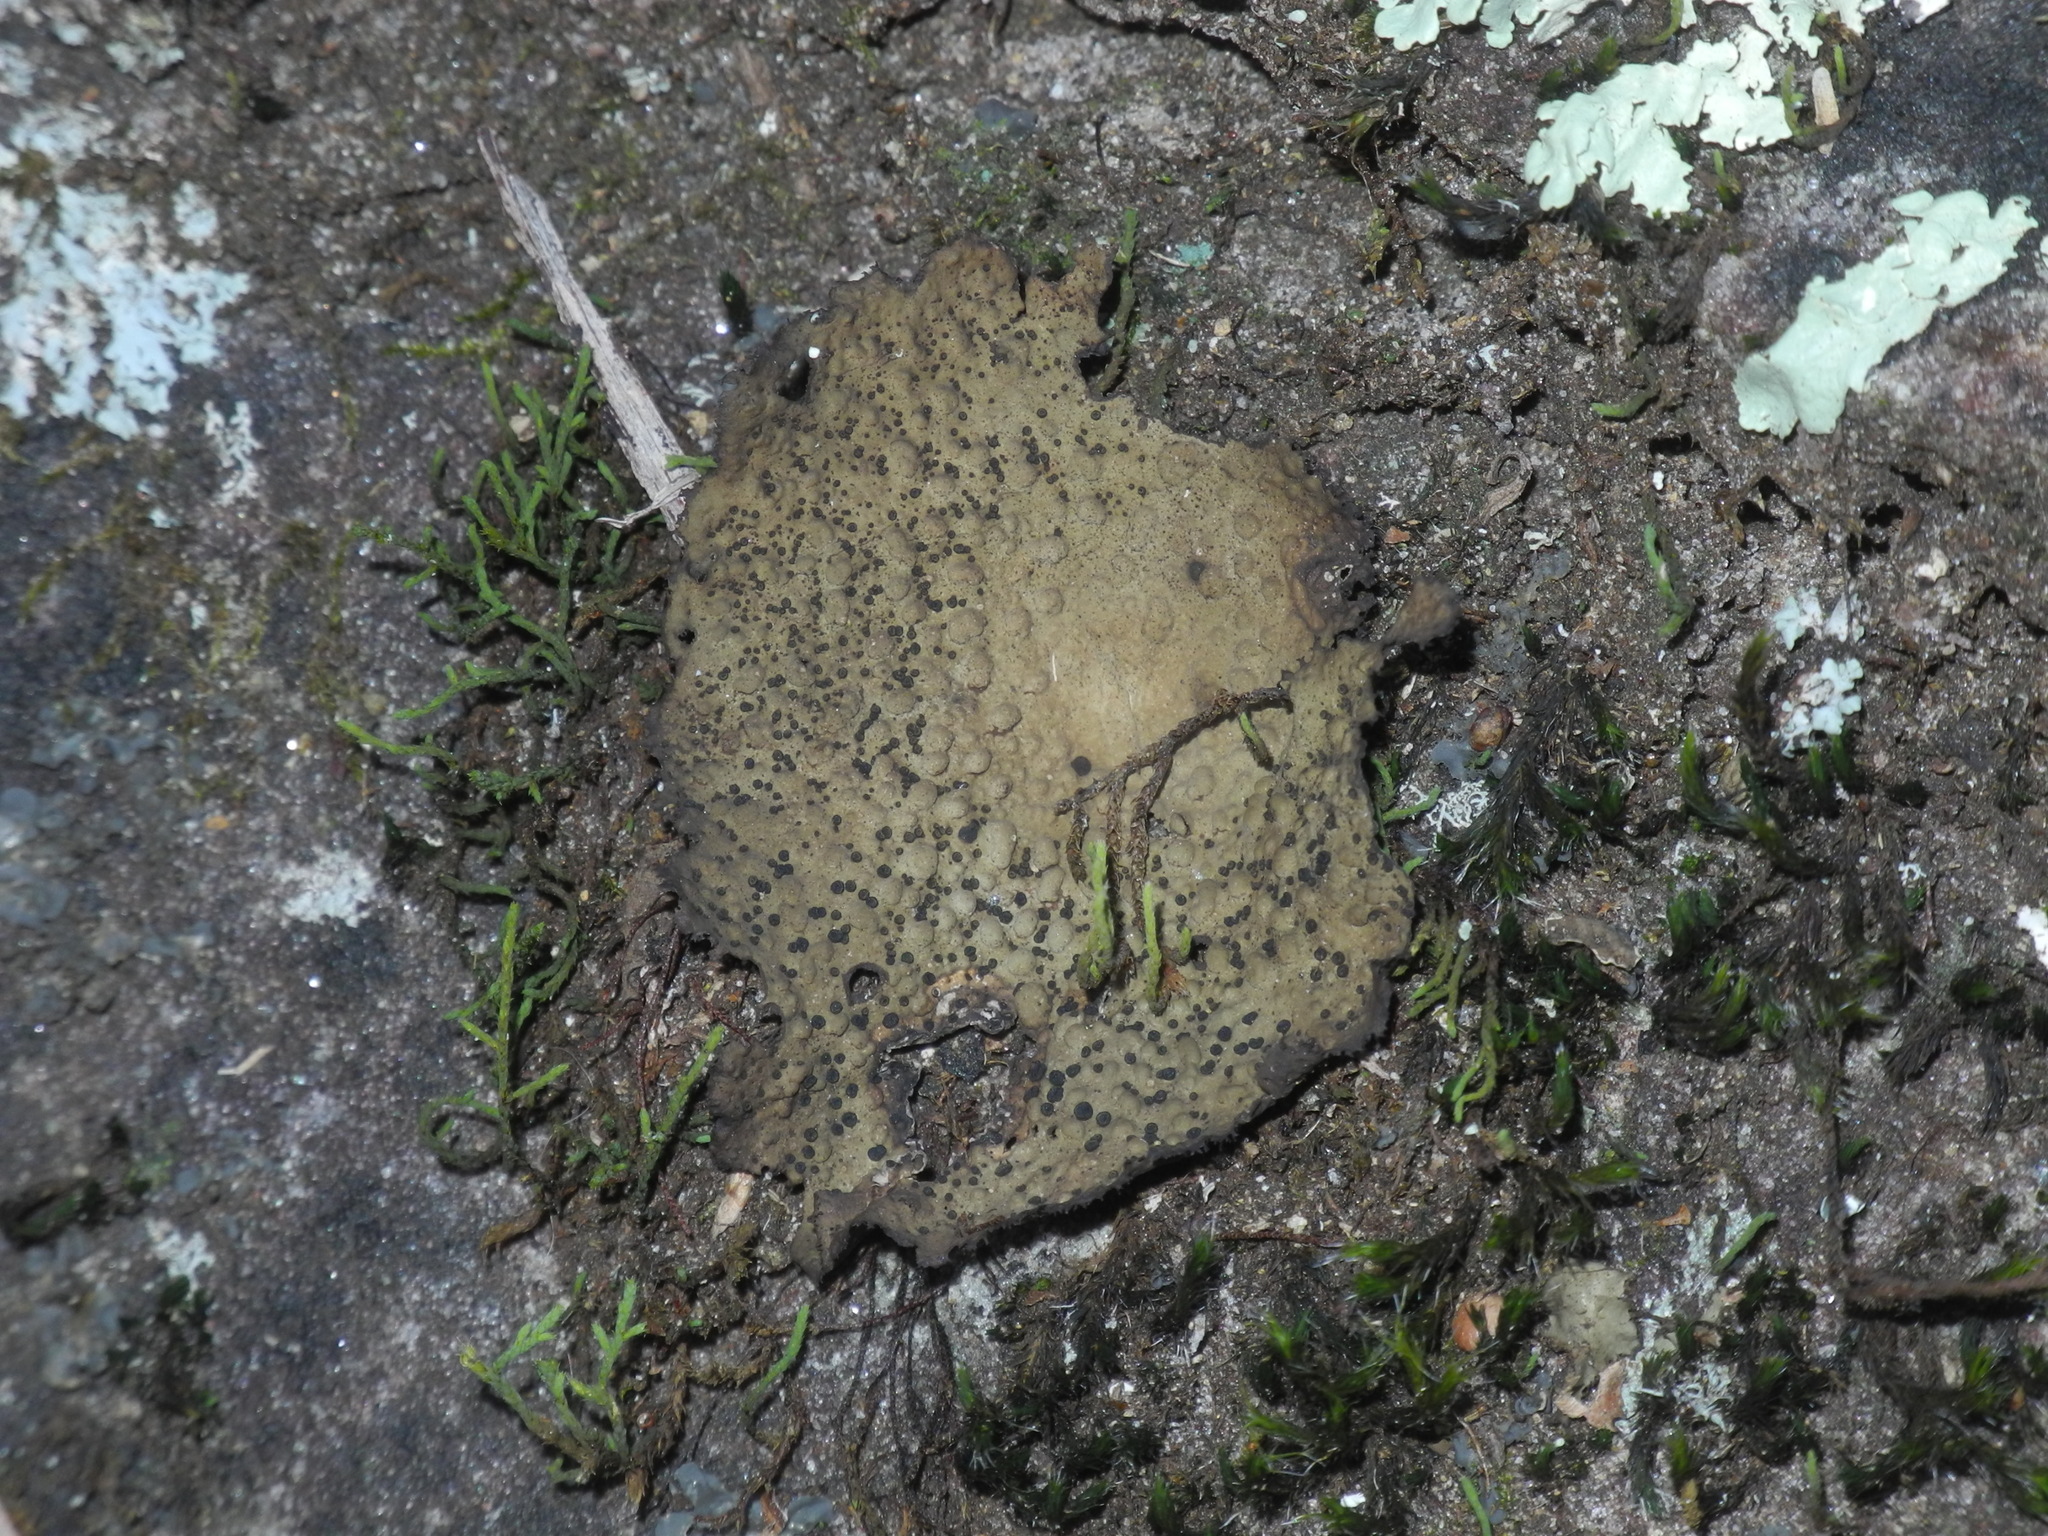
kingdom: Fungi
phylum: Ascomycota
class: Lecanoromycetes
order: Umbilicariales
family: Umbilicariaceae
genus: Lasallia
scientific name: Lasallia papulosa
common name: Common toadskin lichen
